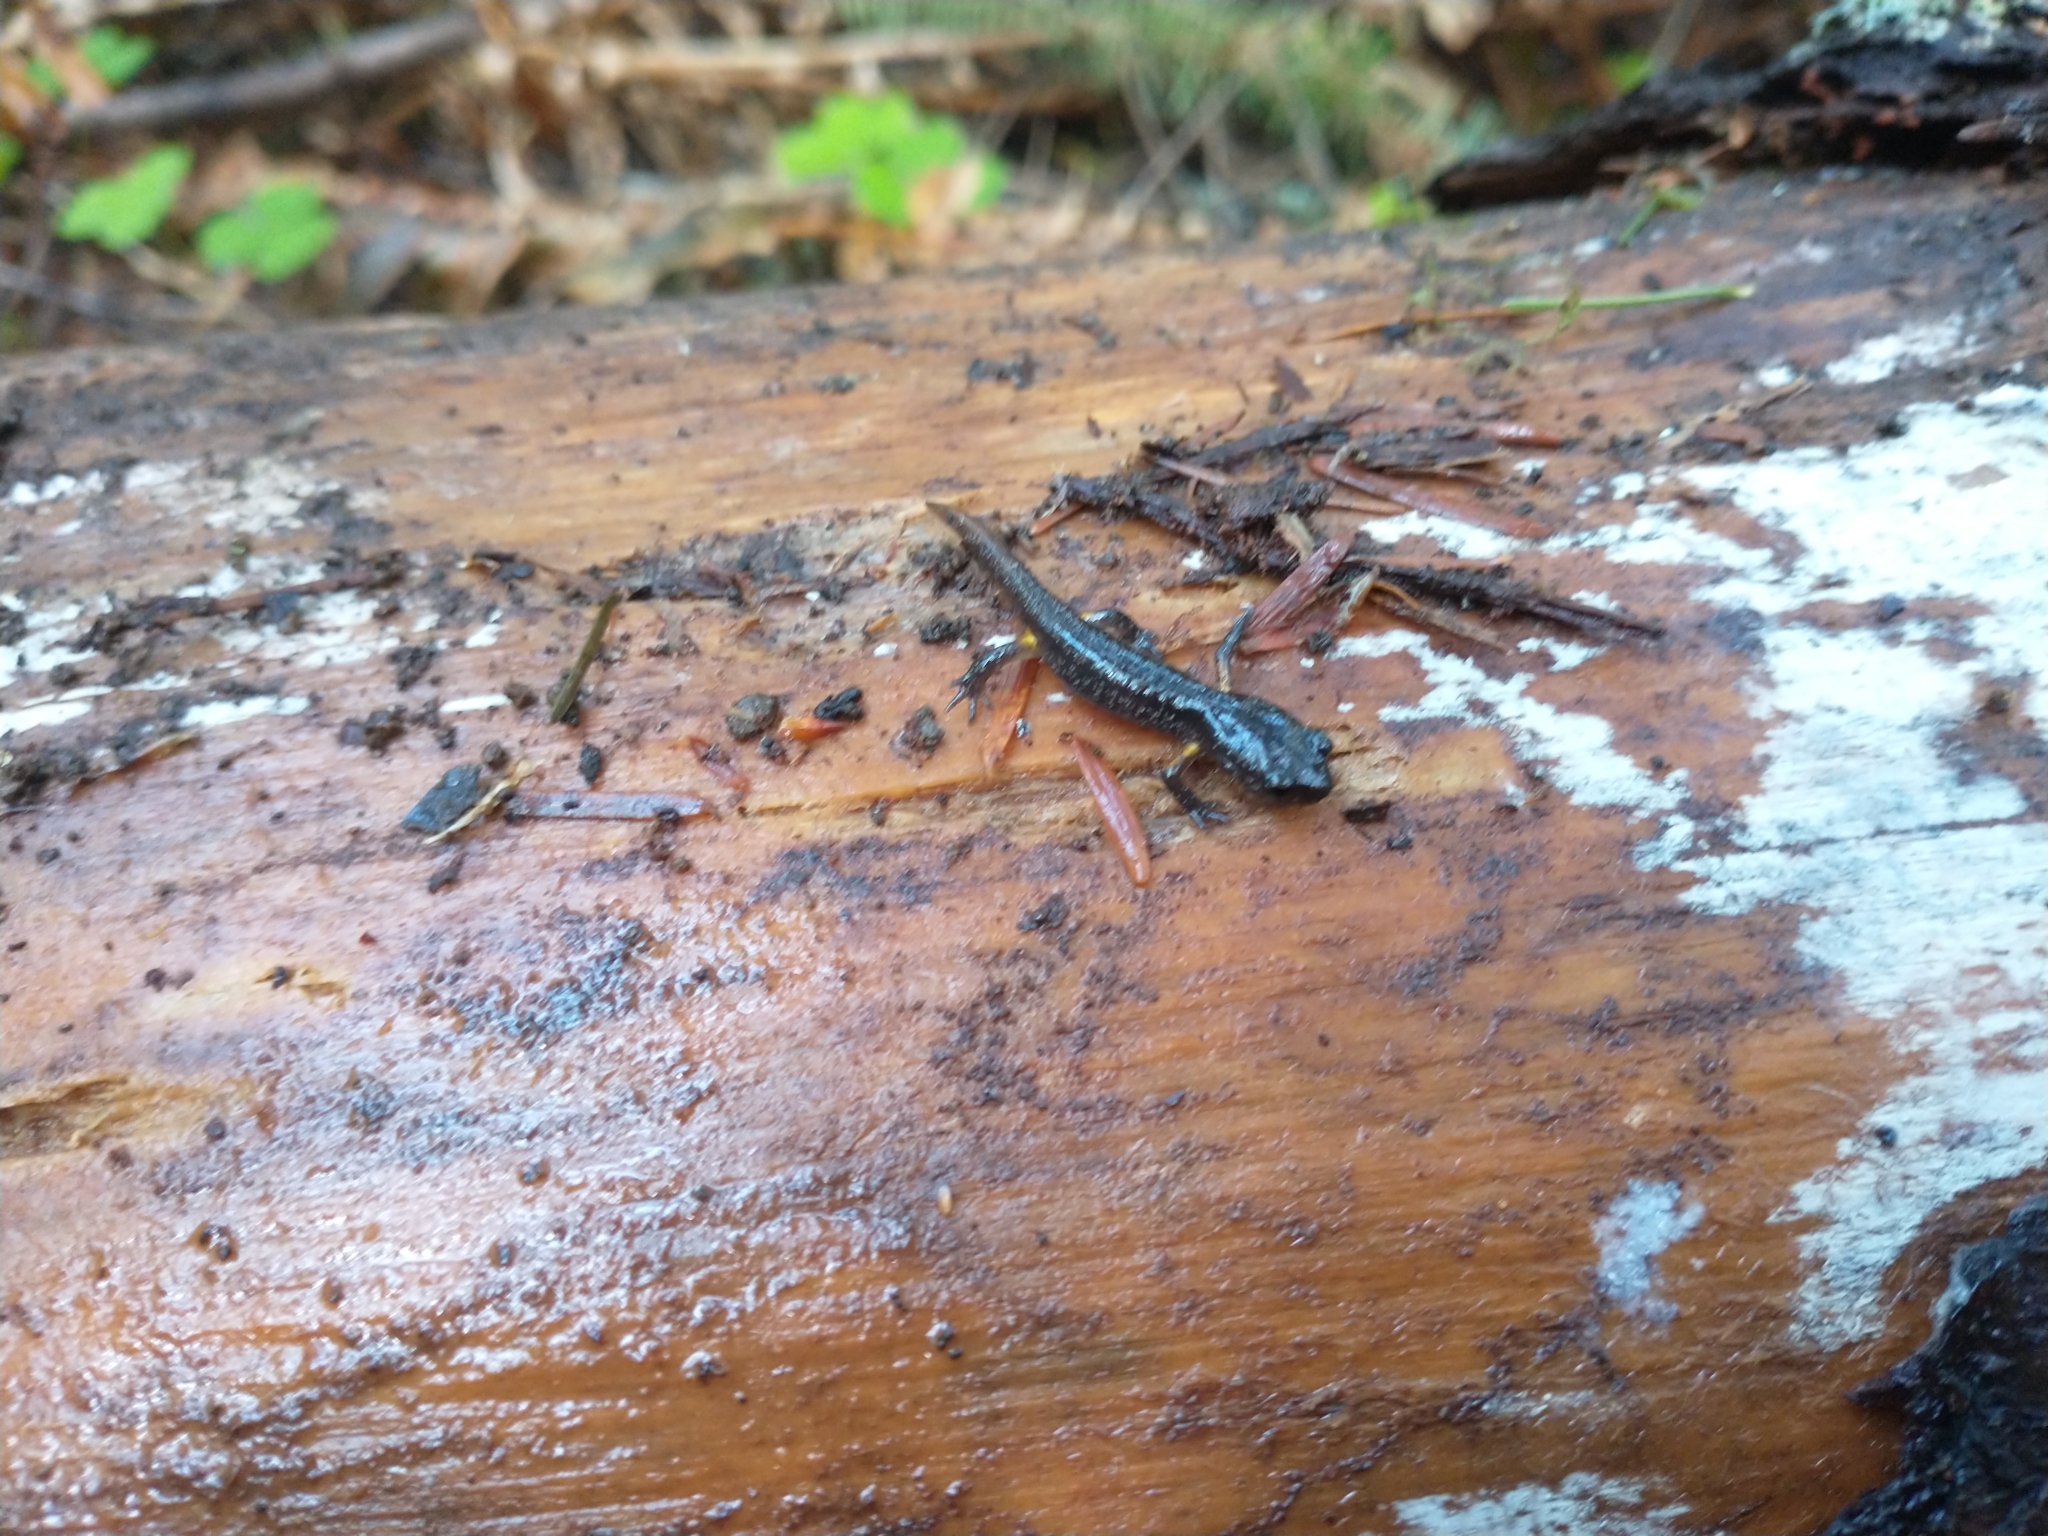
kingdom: Animalia
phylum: Chordata
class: Amphibia
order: Caudata
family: Plethodontidae
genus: Ensatina
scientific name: Ensatina eschscholtzii
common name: Ensatina
